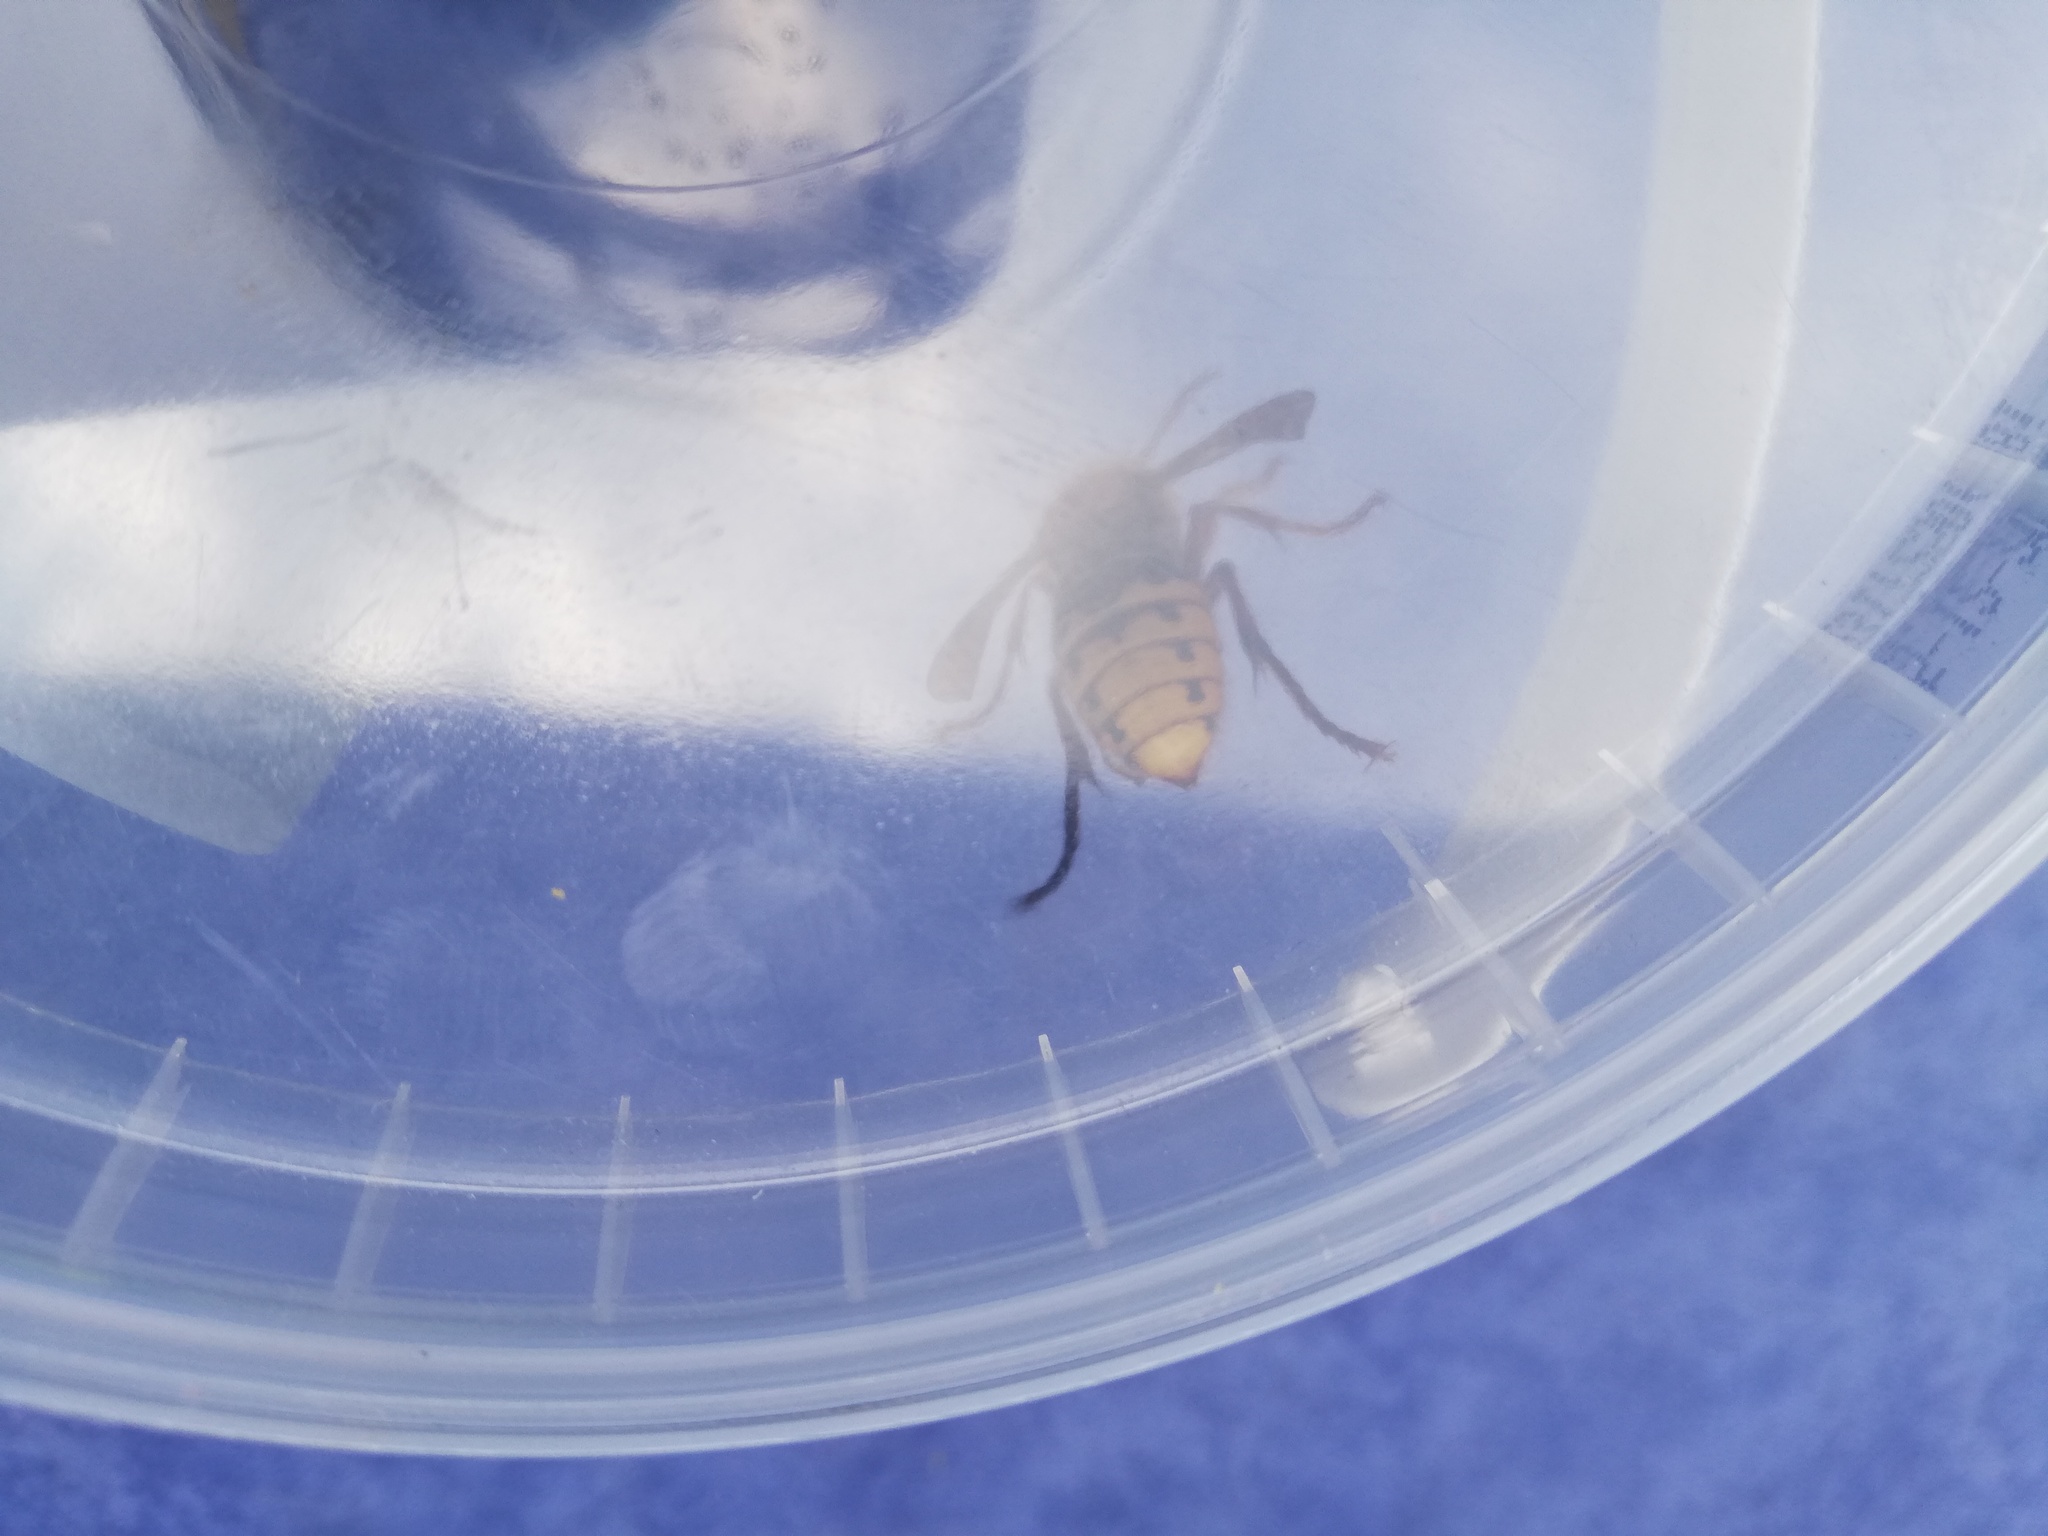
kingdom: Animalia
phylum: Arthropoda
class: Insecta
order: Hymenoptera
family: Vespidae
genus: Vespa
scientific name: Vespa crabro
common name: Hornet
